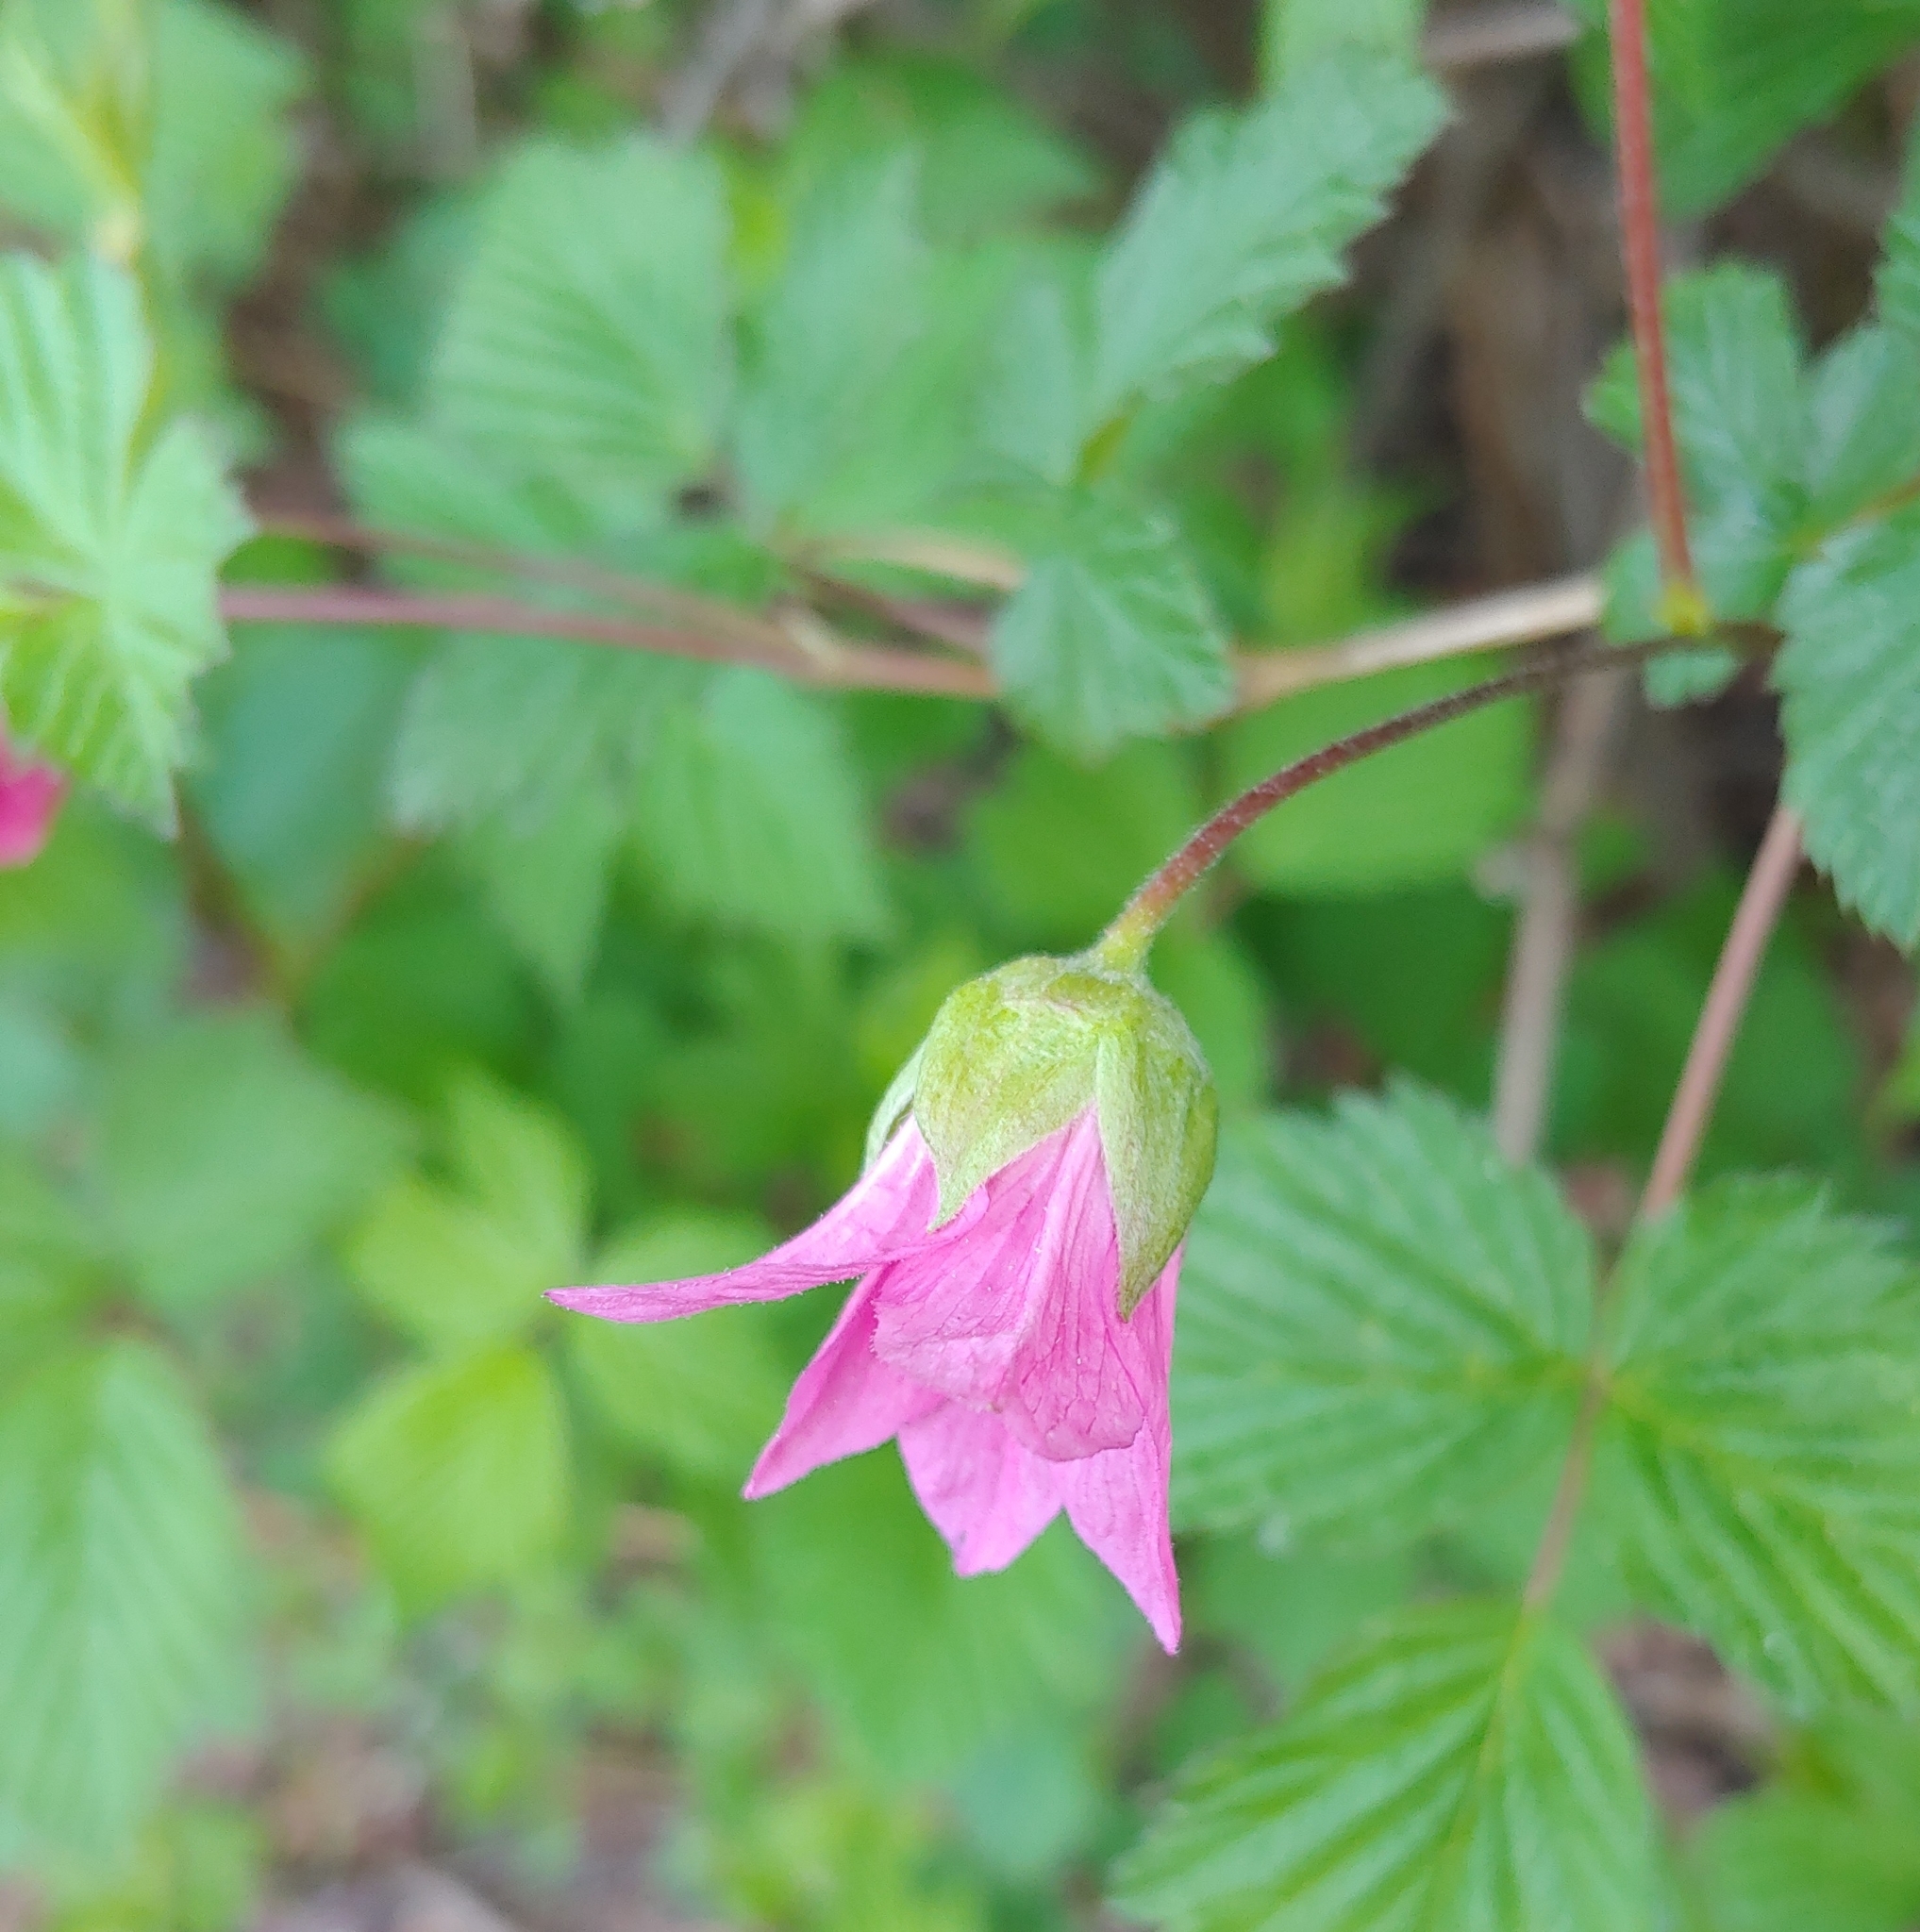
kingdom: Plantae
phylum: Tracheophyta
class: Magnoliopsida
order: Rosales
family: Rosaceae
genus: Rubus
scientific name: Rubus spectabilis
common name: Salmonberry
